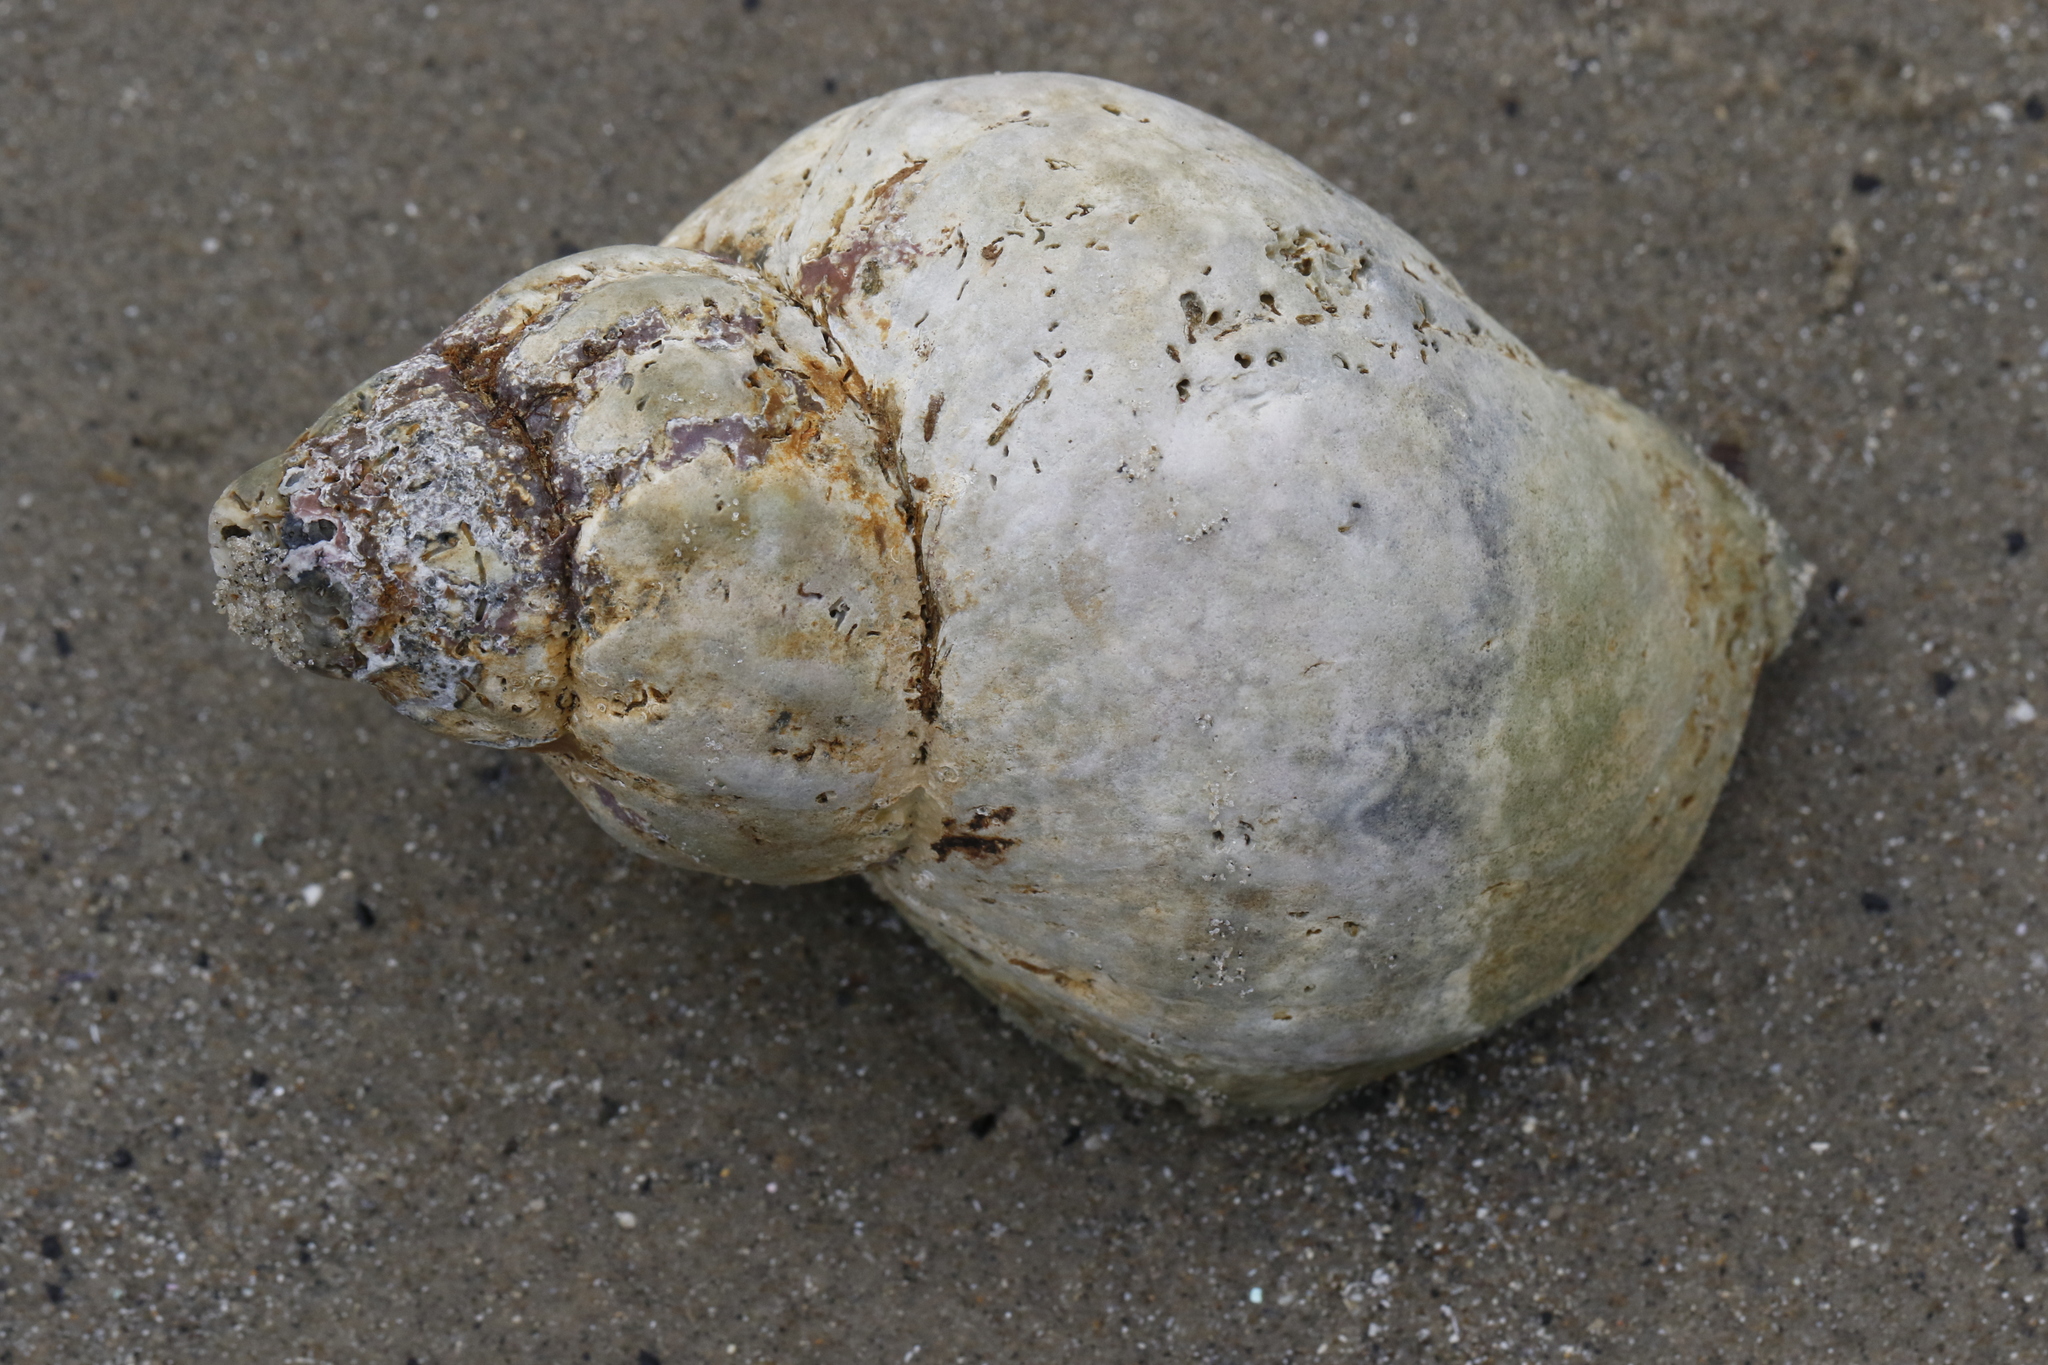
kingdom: Animalia
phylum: Mollusca
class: Gastropoda
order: Neogastropoda
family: Buccinidae
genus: Buccinum
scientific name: Buccinum undatum
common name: Common whelk
